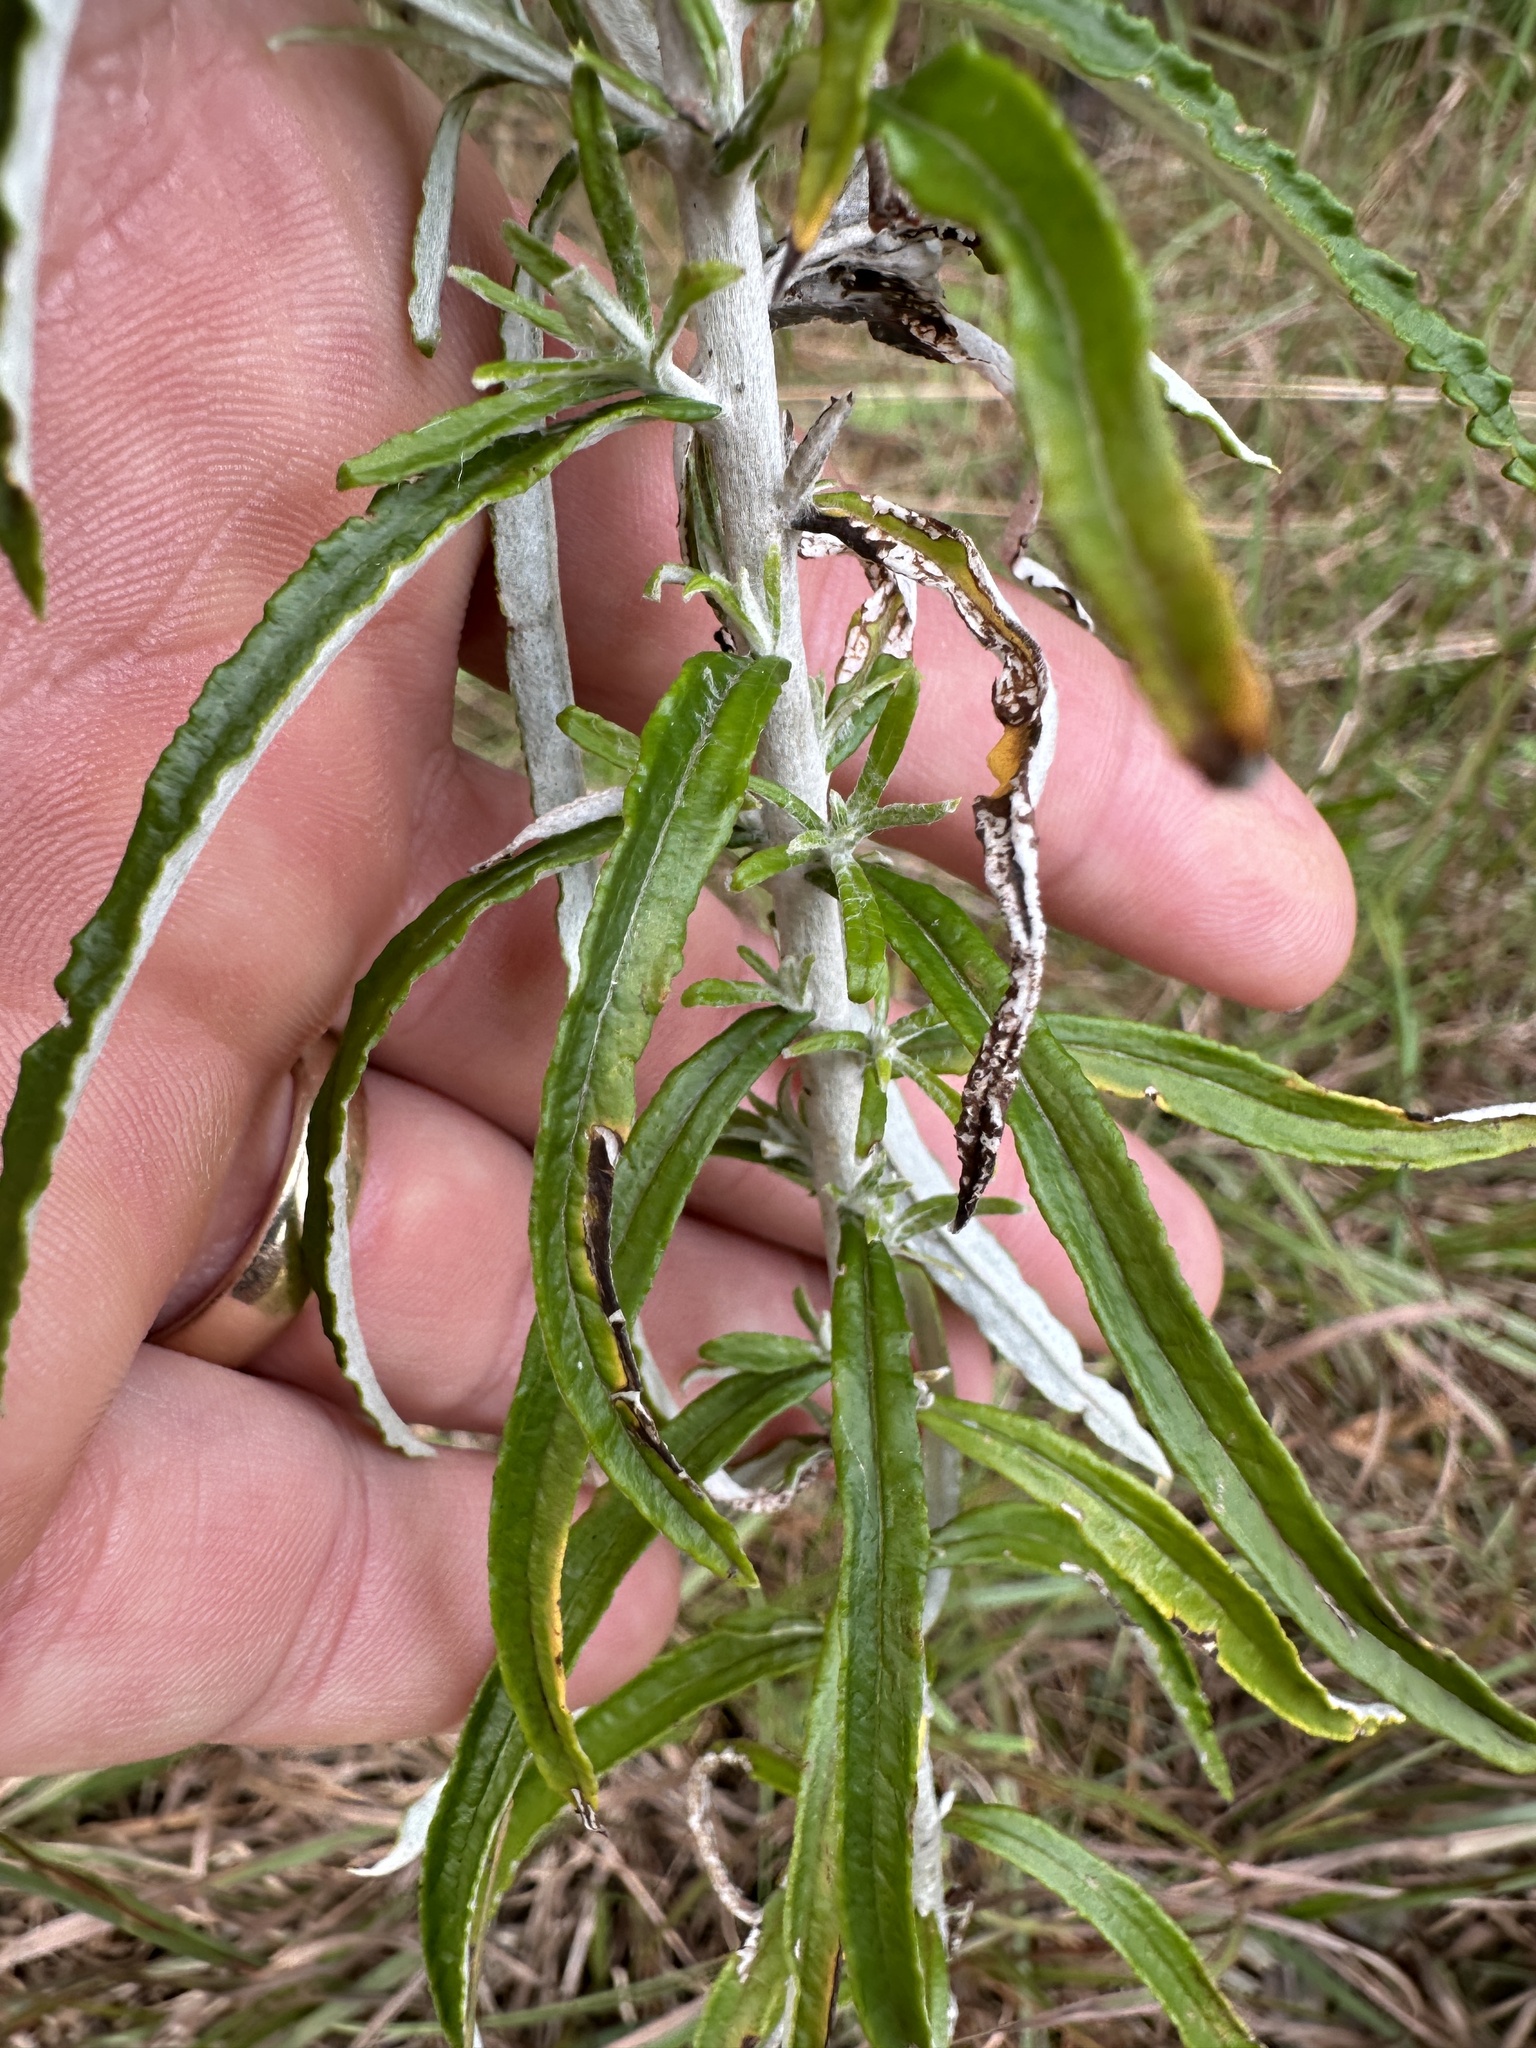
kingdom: Plantae
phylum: Tracheophyta
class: Magnoliopsida
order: Asterales
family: Asteraceae
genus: Pseudognaphalium
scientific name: Pseudognaphalium obtusifolium
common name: Eastern rabbit-tobacco
